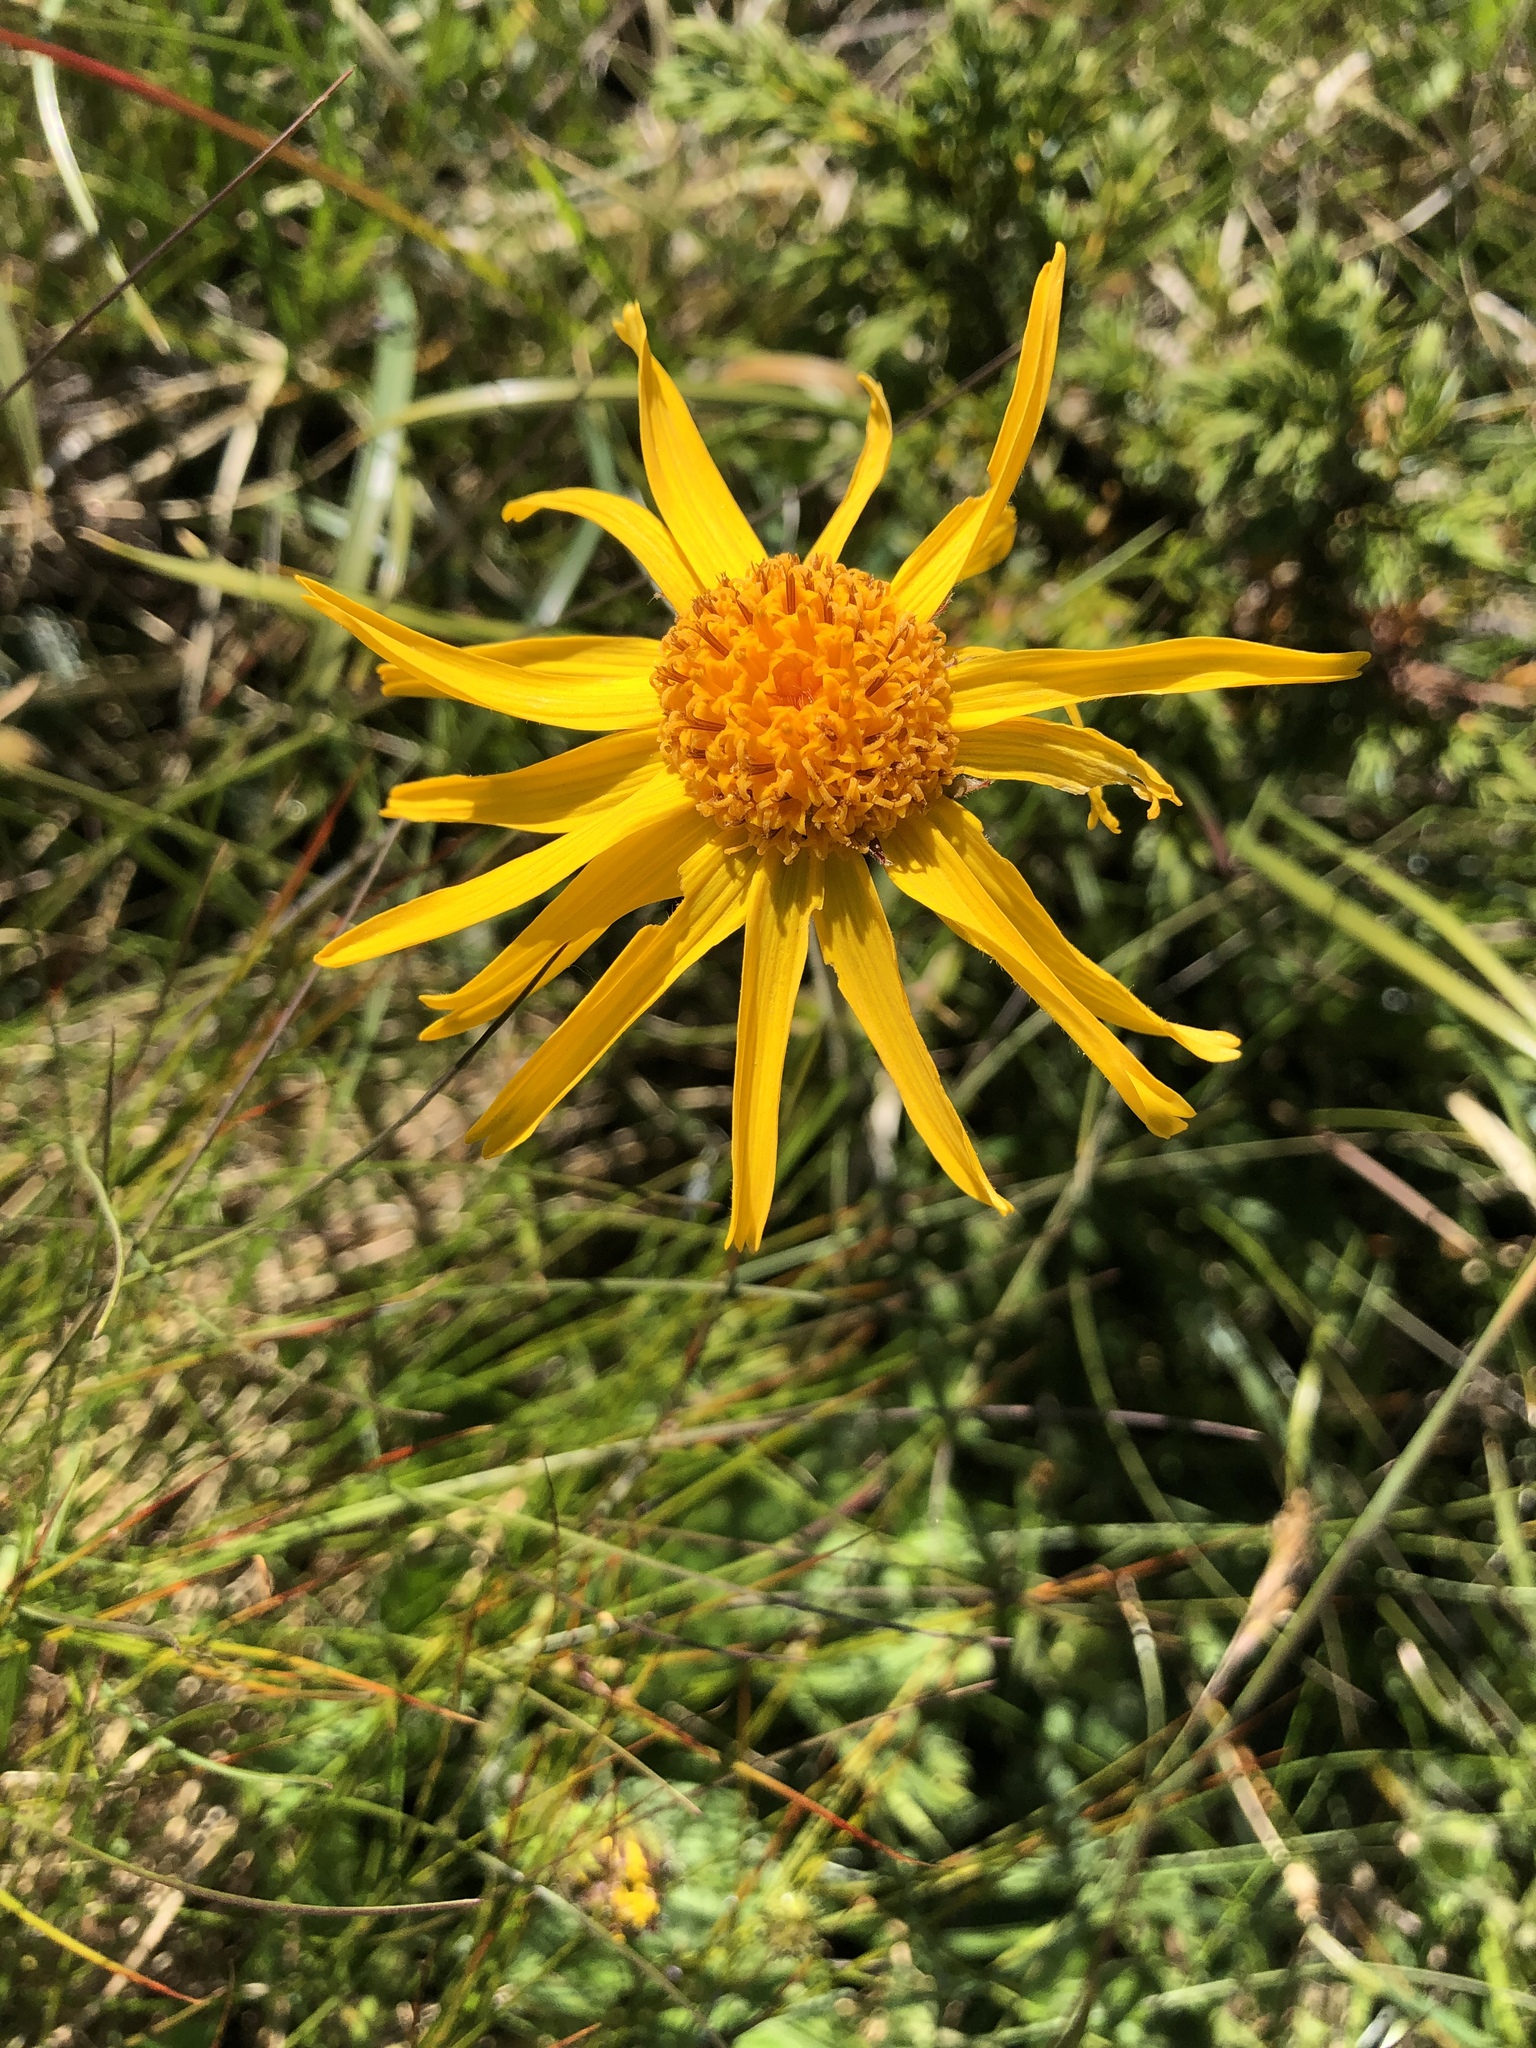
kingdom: Plantae
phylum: Tracheophyta
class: Magnoliopsida
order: Asterales
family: Asteraceae
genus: Arnica
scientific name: Arnica montana
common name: Leopard's bane
